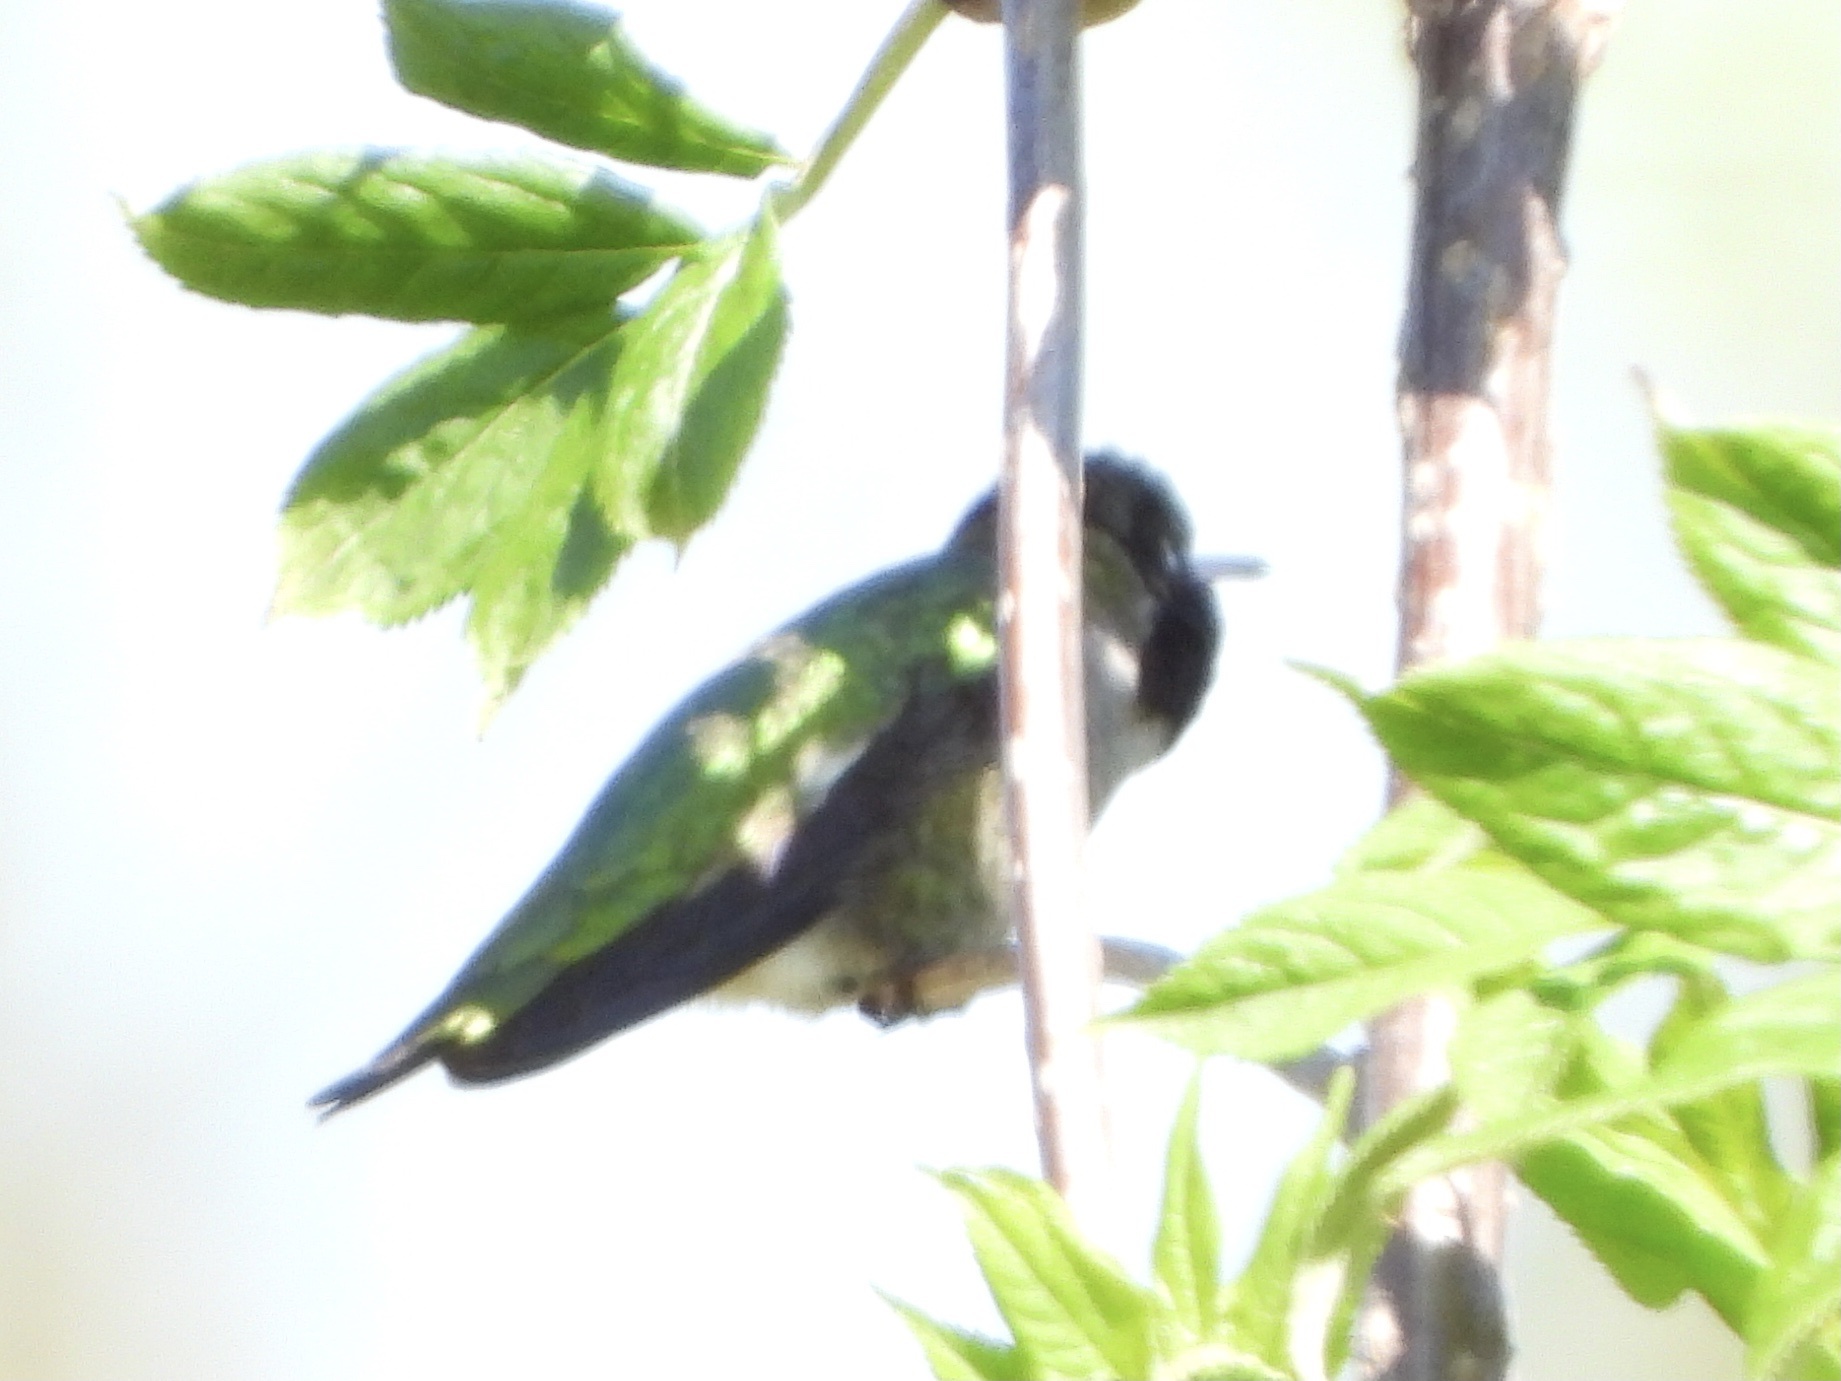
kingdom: Animalia
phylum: Chordata
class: Aves
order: Apodiformes
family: Trochilidae
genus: Calypte
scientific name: Calypte anna
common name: Anna's hummingbird
